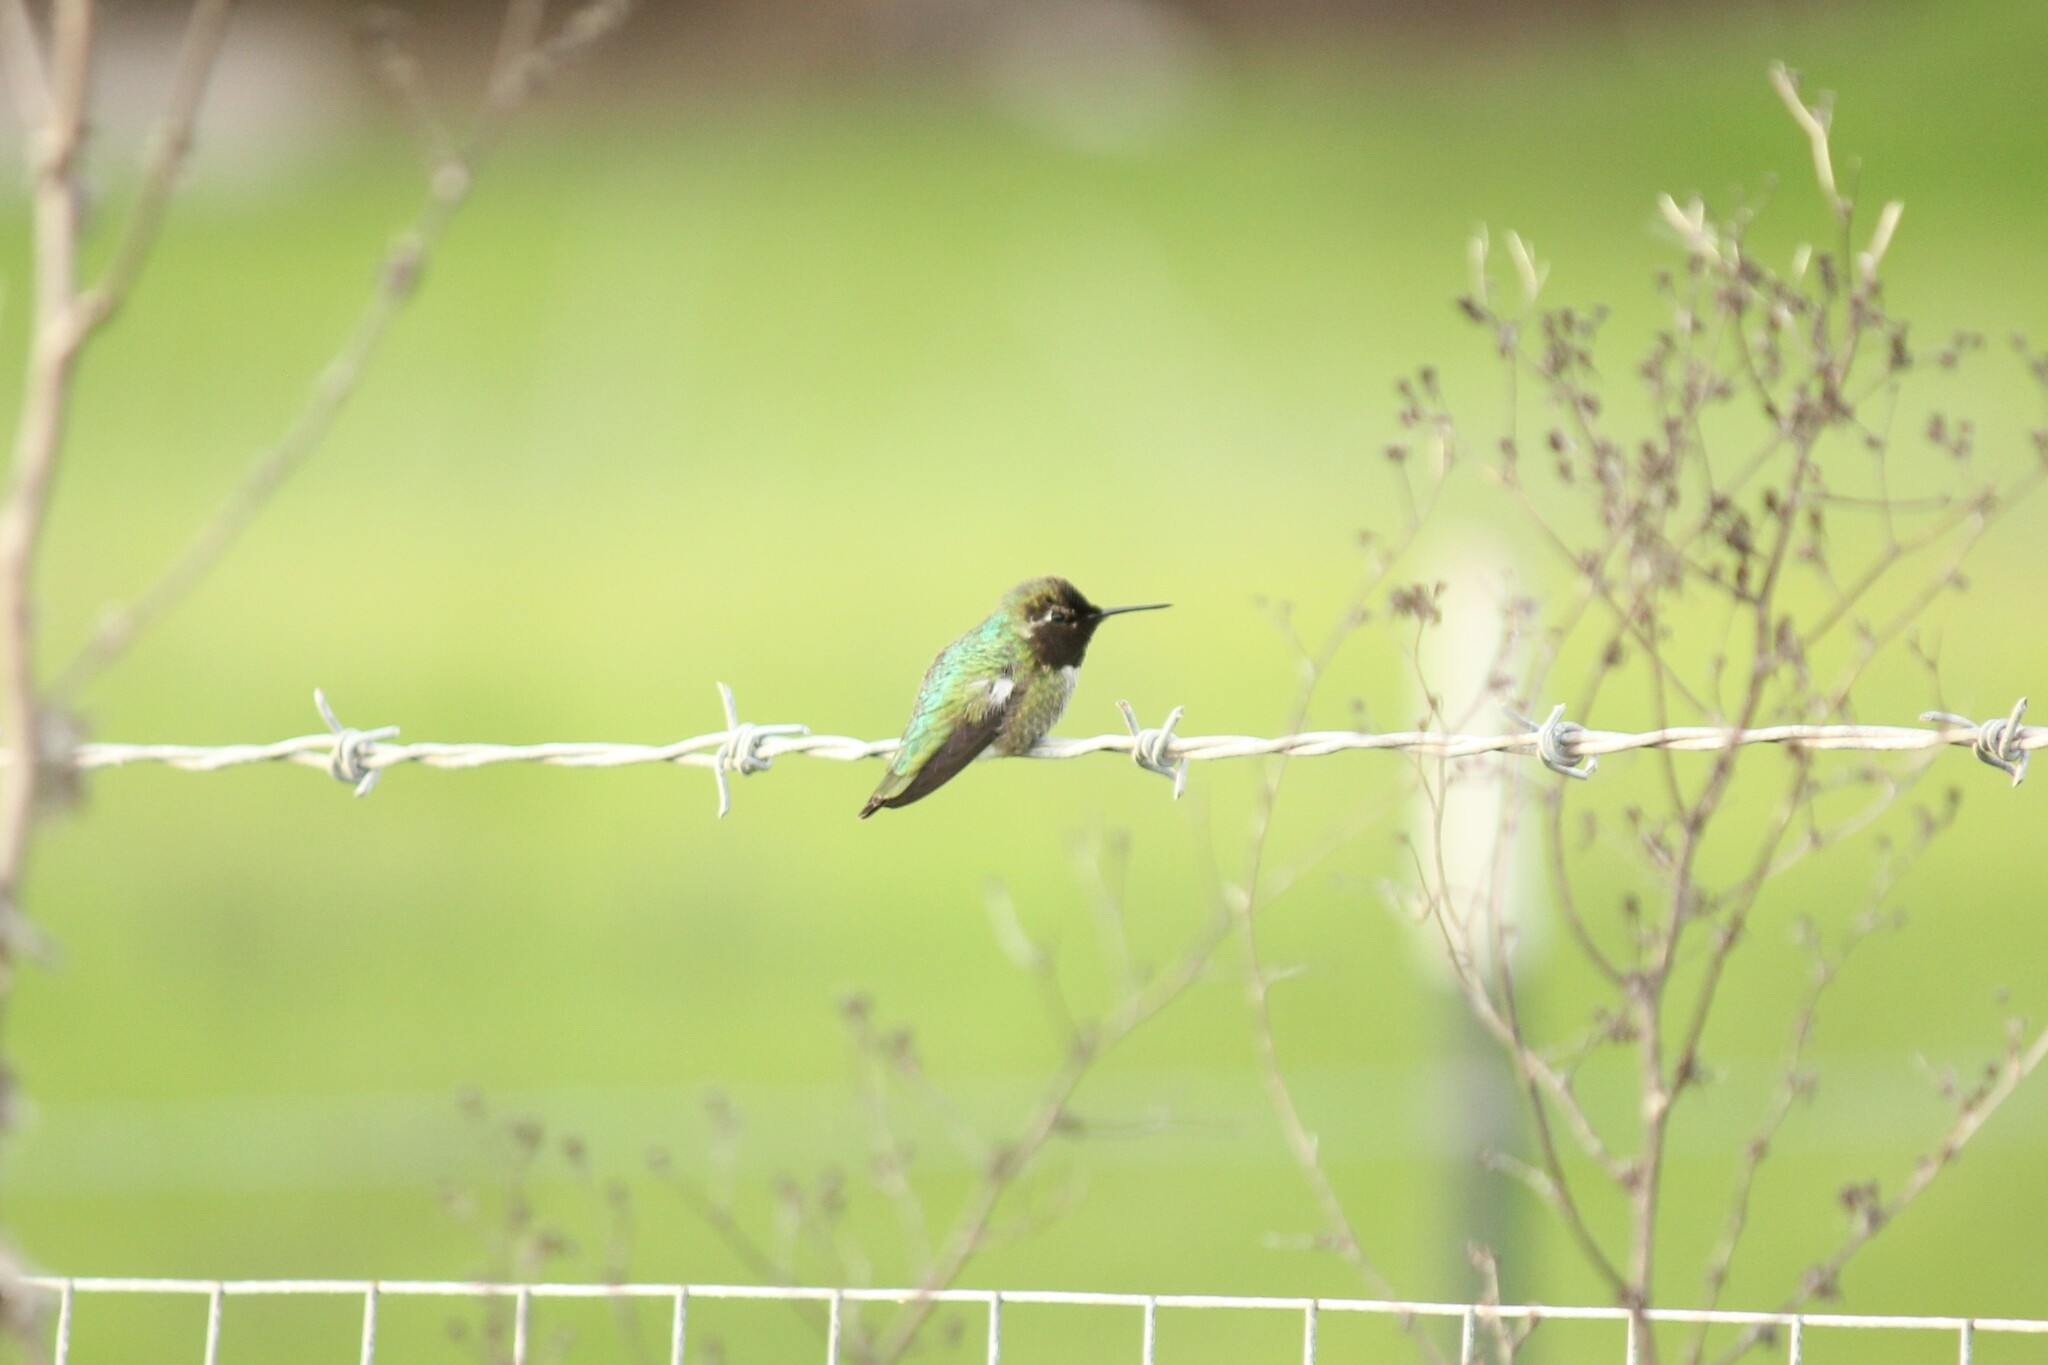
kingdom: Animalia
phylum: Chordata
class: Aves
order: Apodiformes
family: Trochilidae
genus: Calypte
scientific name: Calypte anna
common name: Anna's hummingbird
